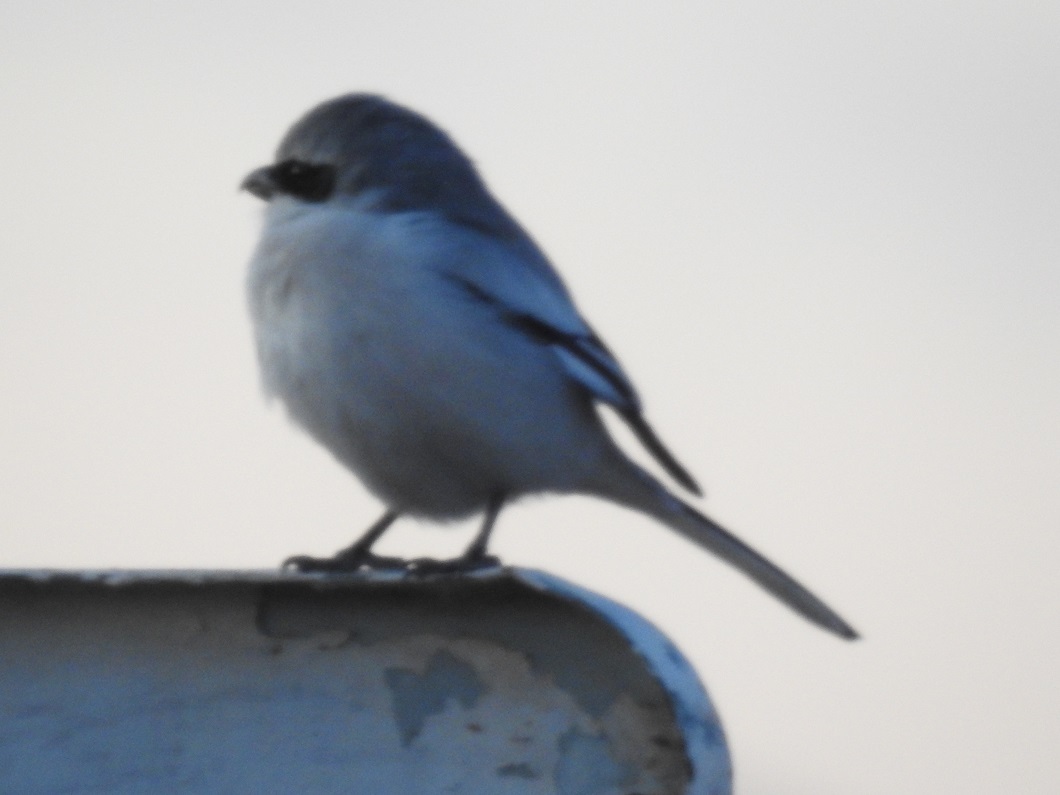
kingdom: Animalia
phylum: Chordata
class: Aves
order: Passeriformes
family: Laniidae
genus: Lanius
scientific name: Lanius excubitor
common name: Great grey shrike
